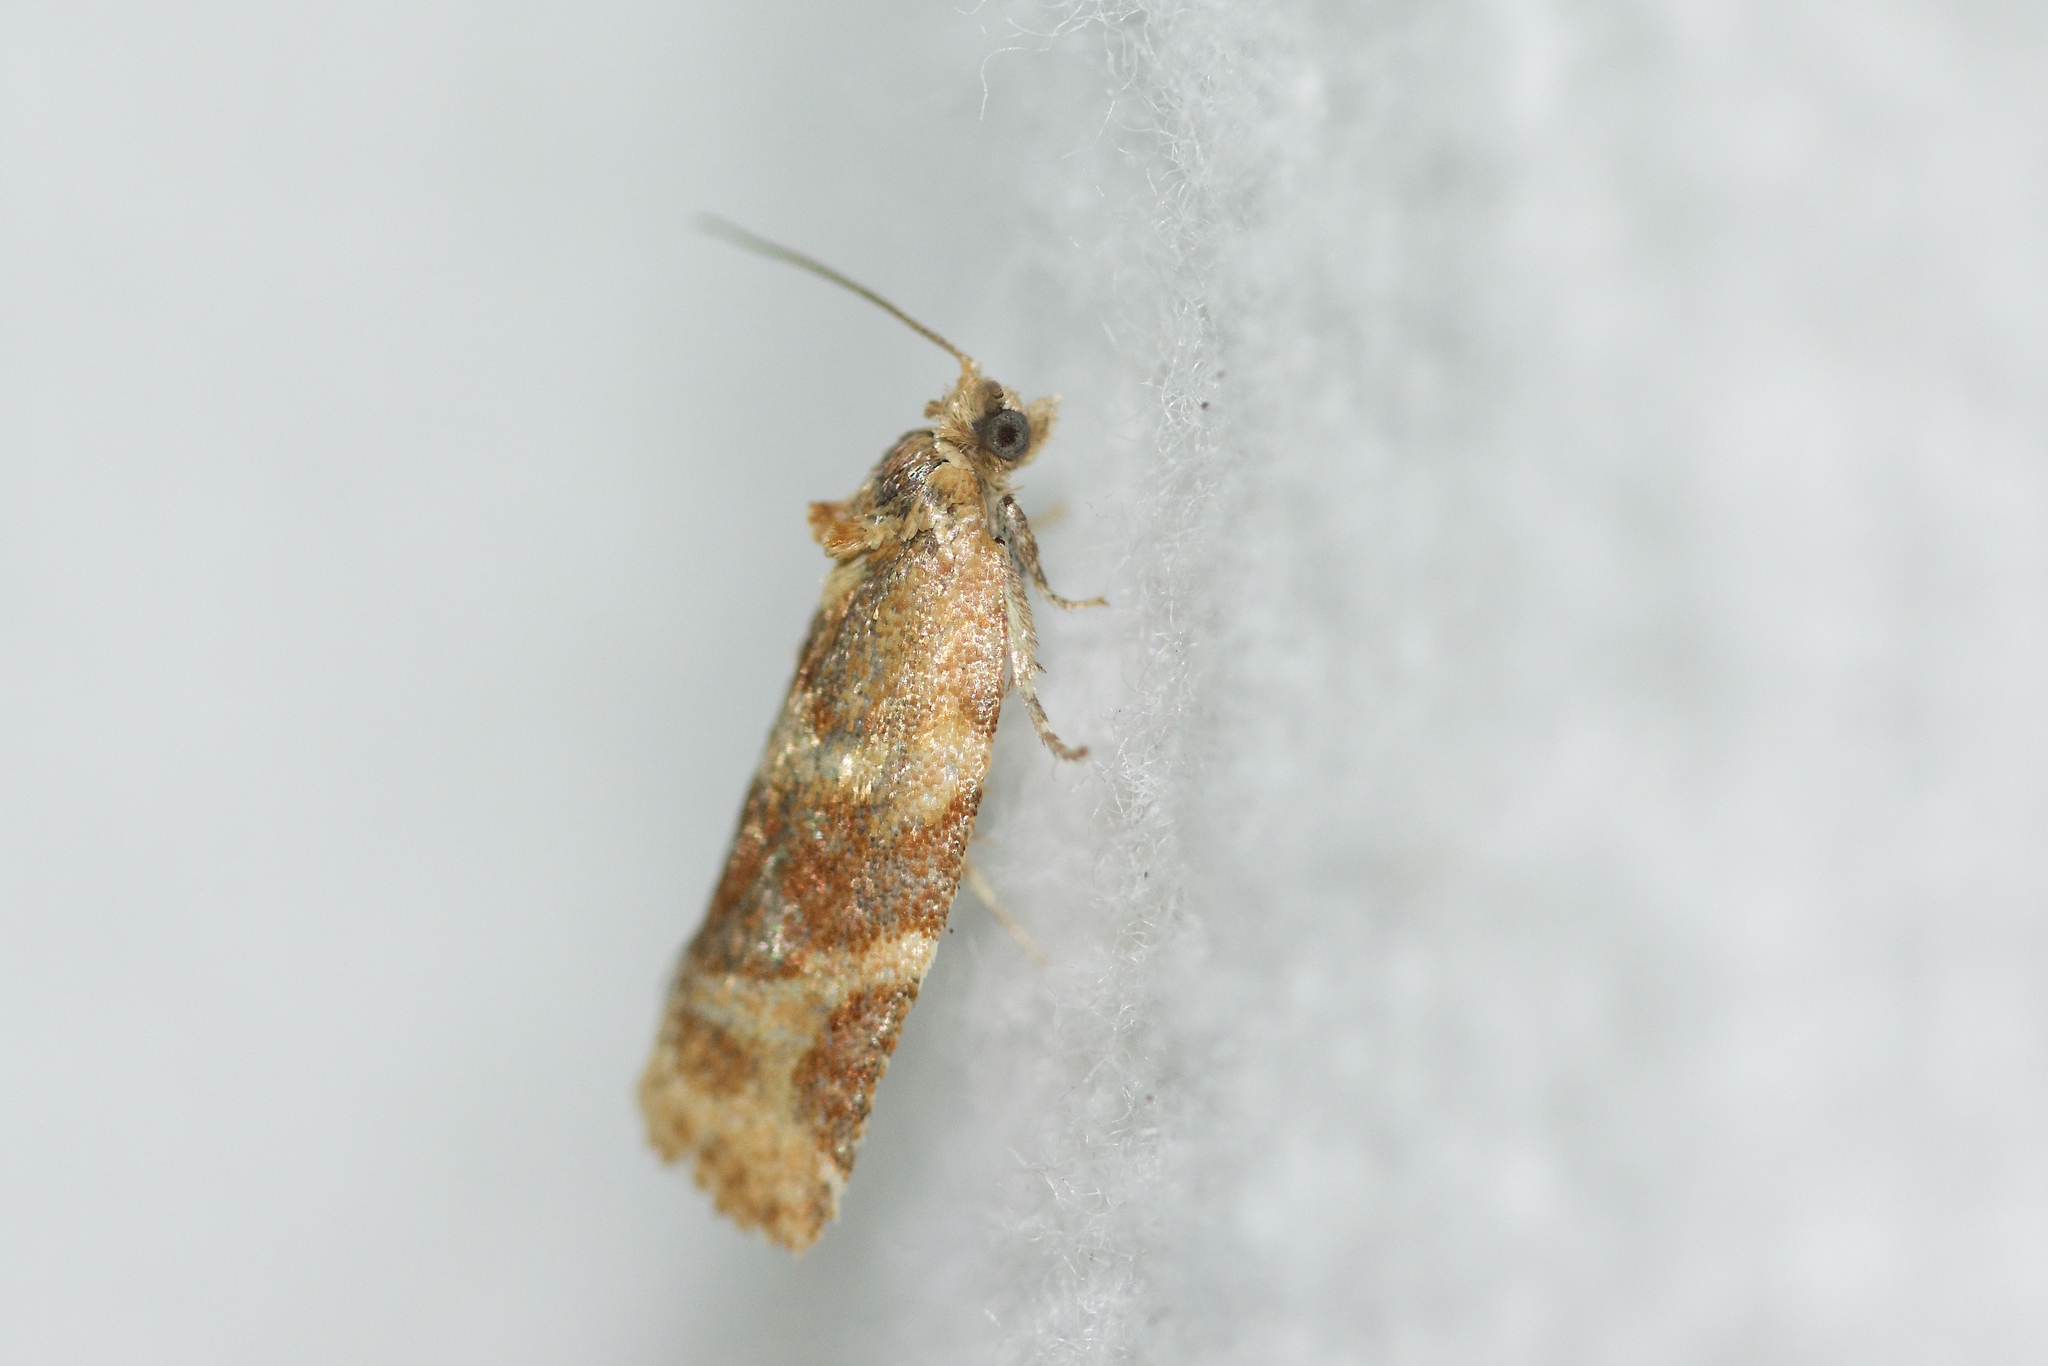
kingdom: Animalia
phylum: Arthropoda
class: Insecta
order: Lepidoptera
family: Tortricidae
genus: Argyrotaenia
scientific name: Argyrotaenia pinatubana
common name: Pine tube moth
